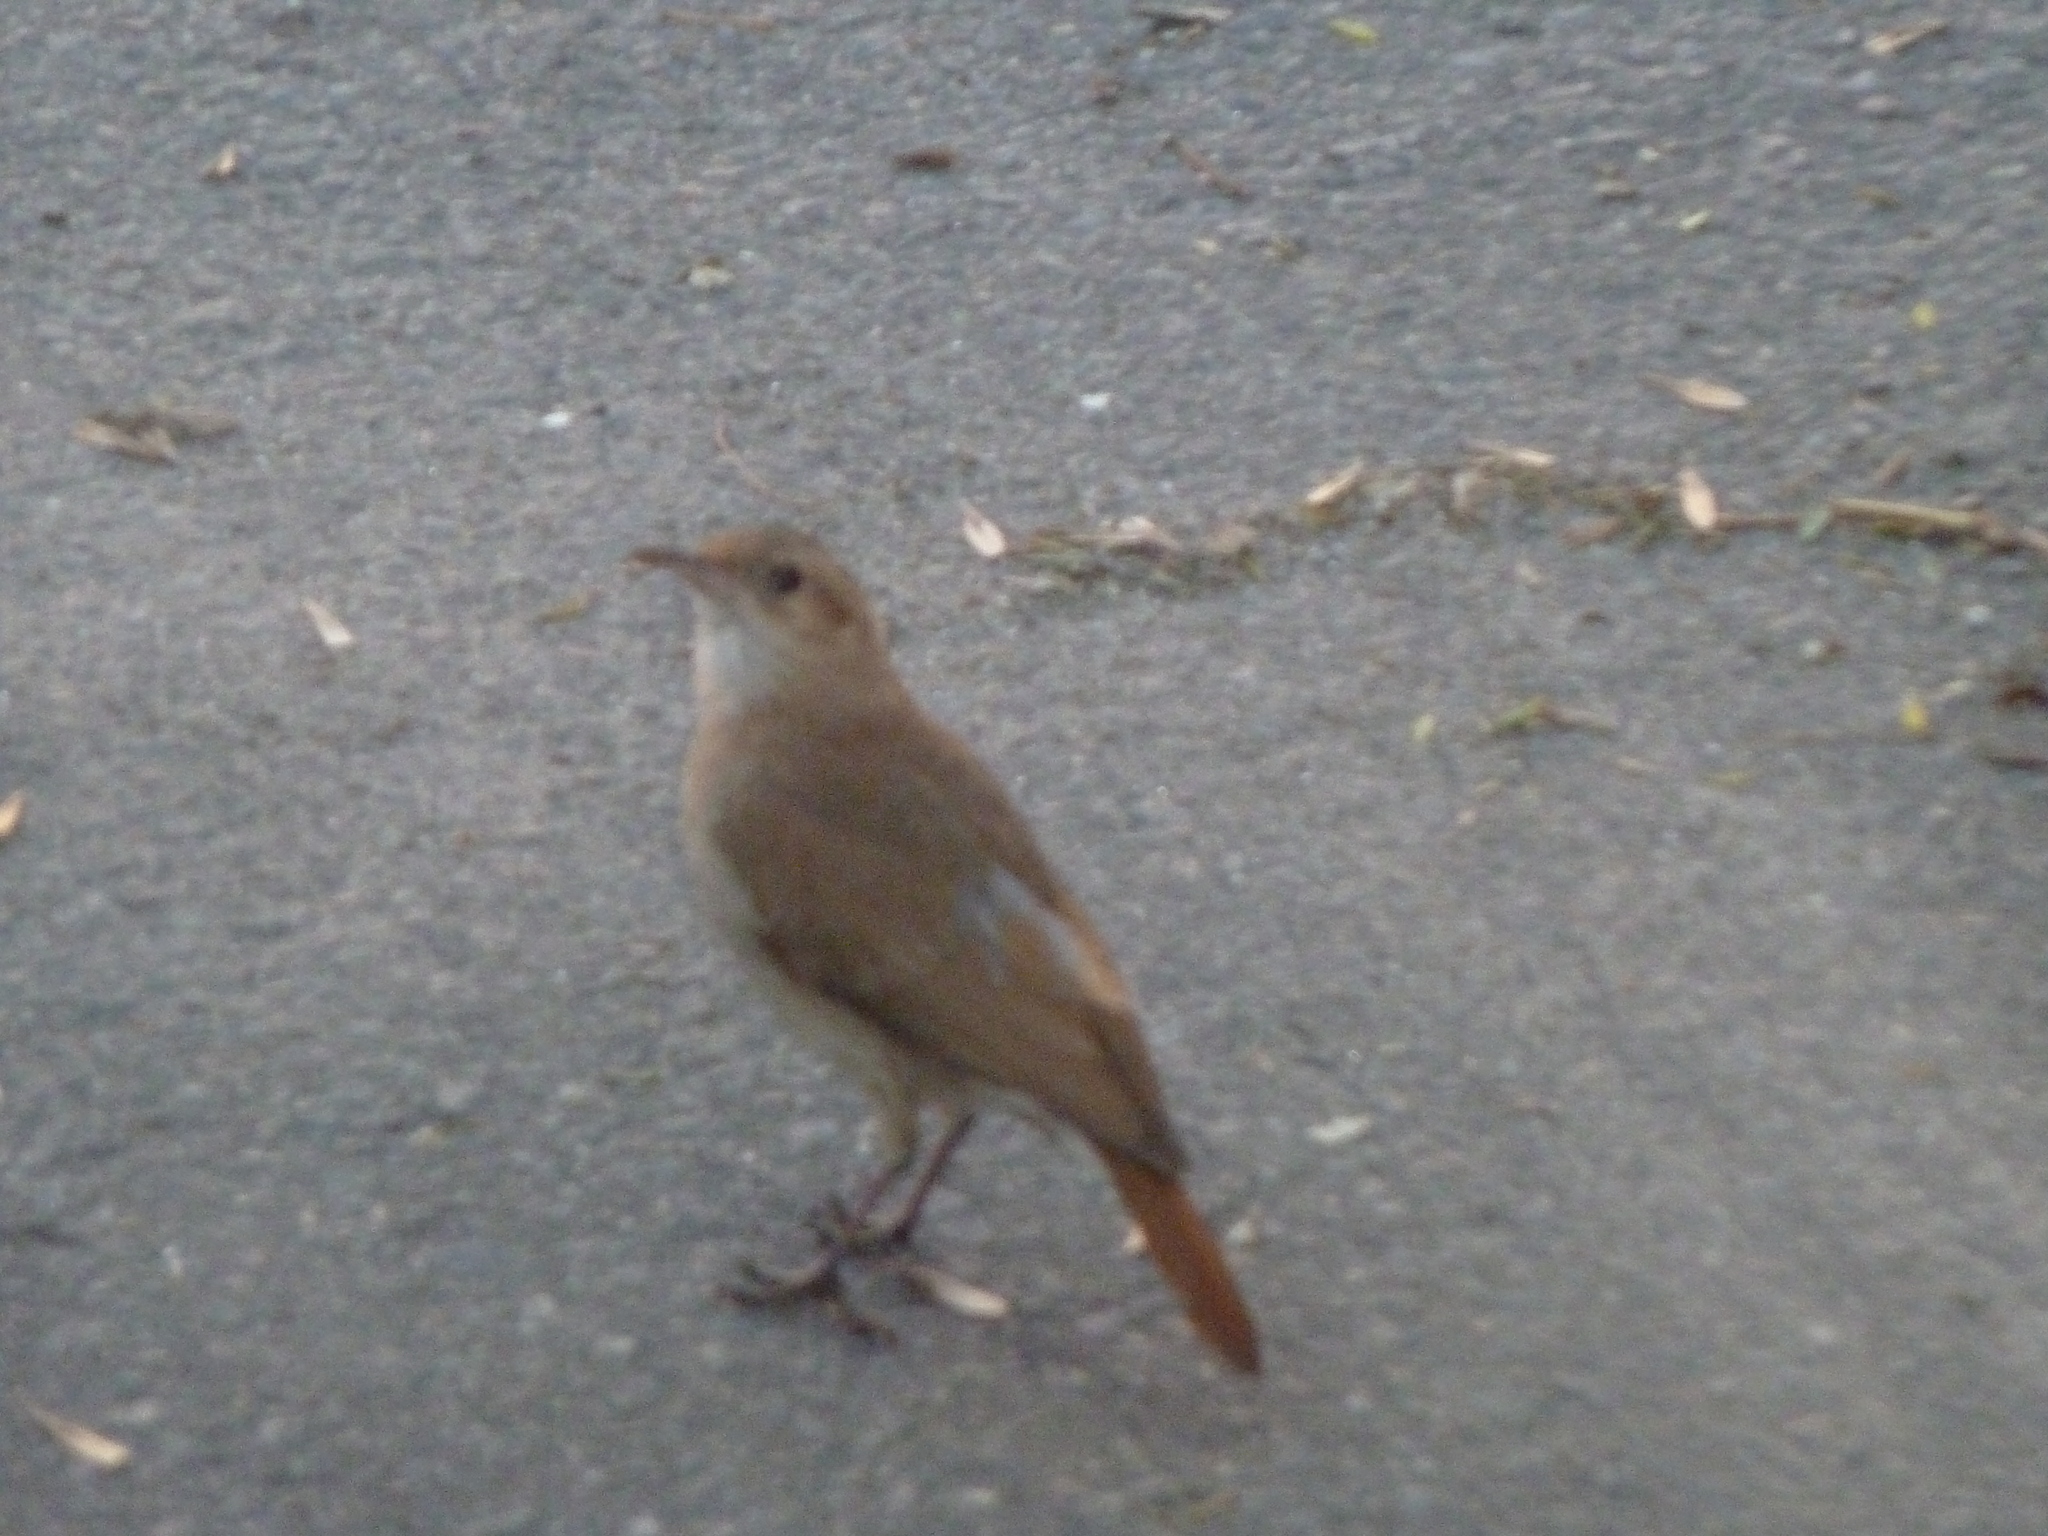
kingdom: Animalia
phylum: Chordata
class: Aves
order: Passeriformes
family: Furnariidae
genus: Furnarius
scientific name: Furnarius rufus
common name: Rufous hornero
